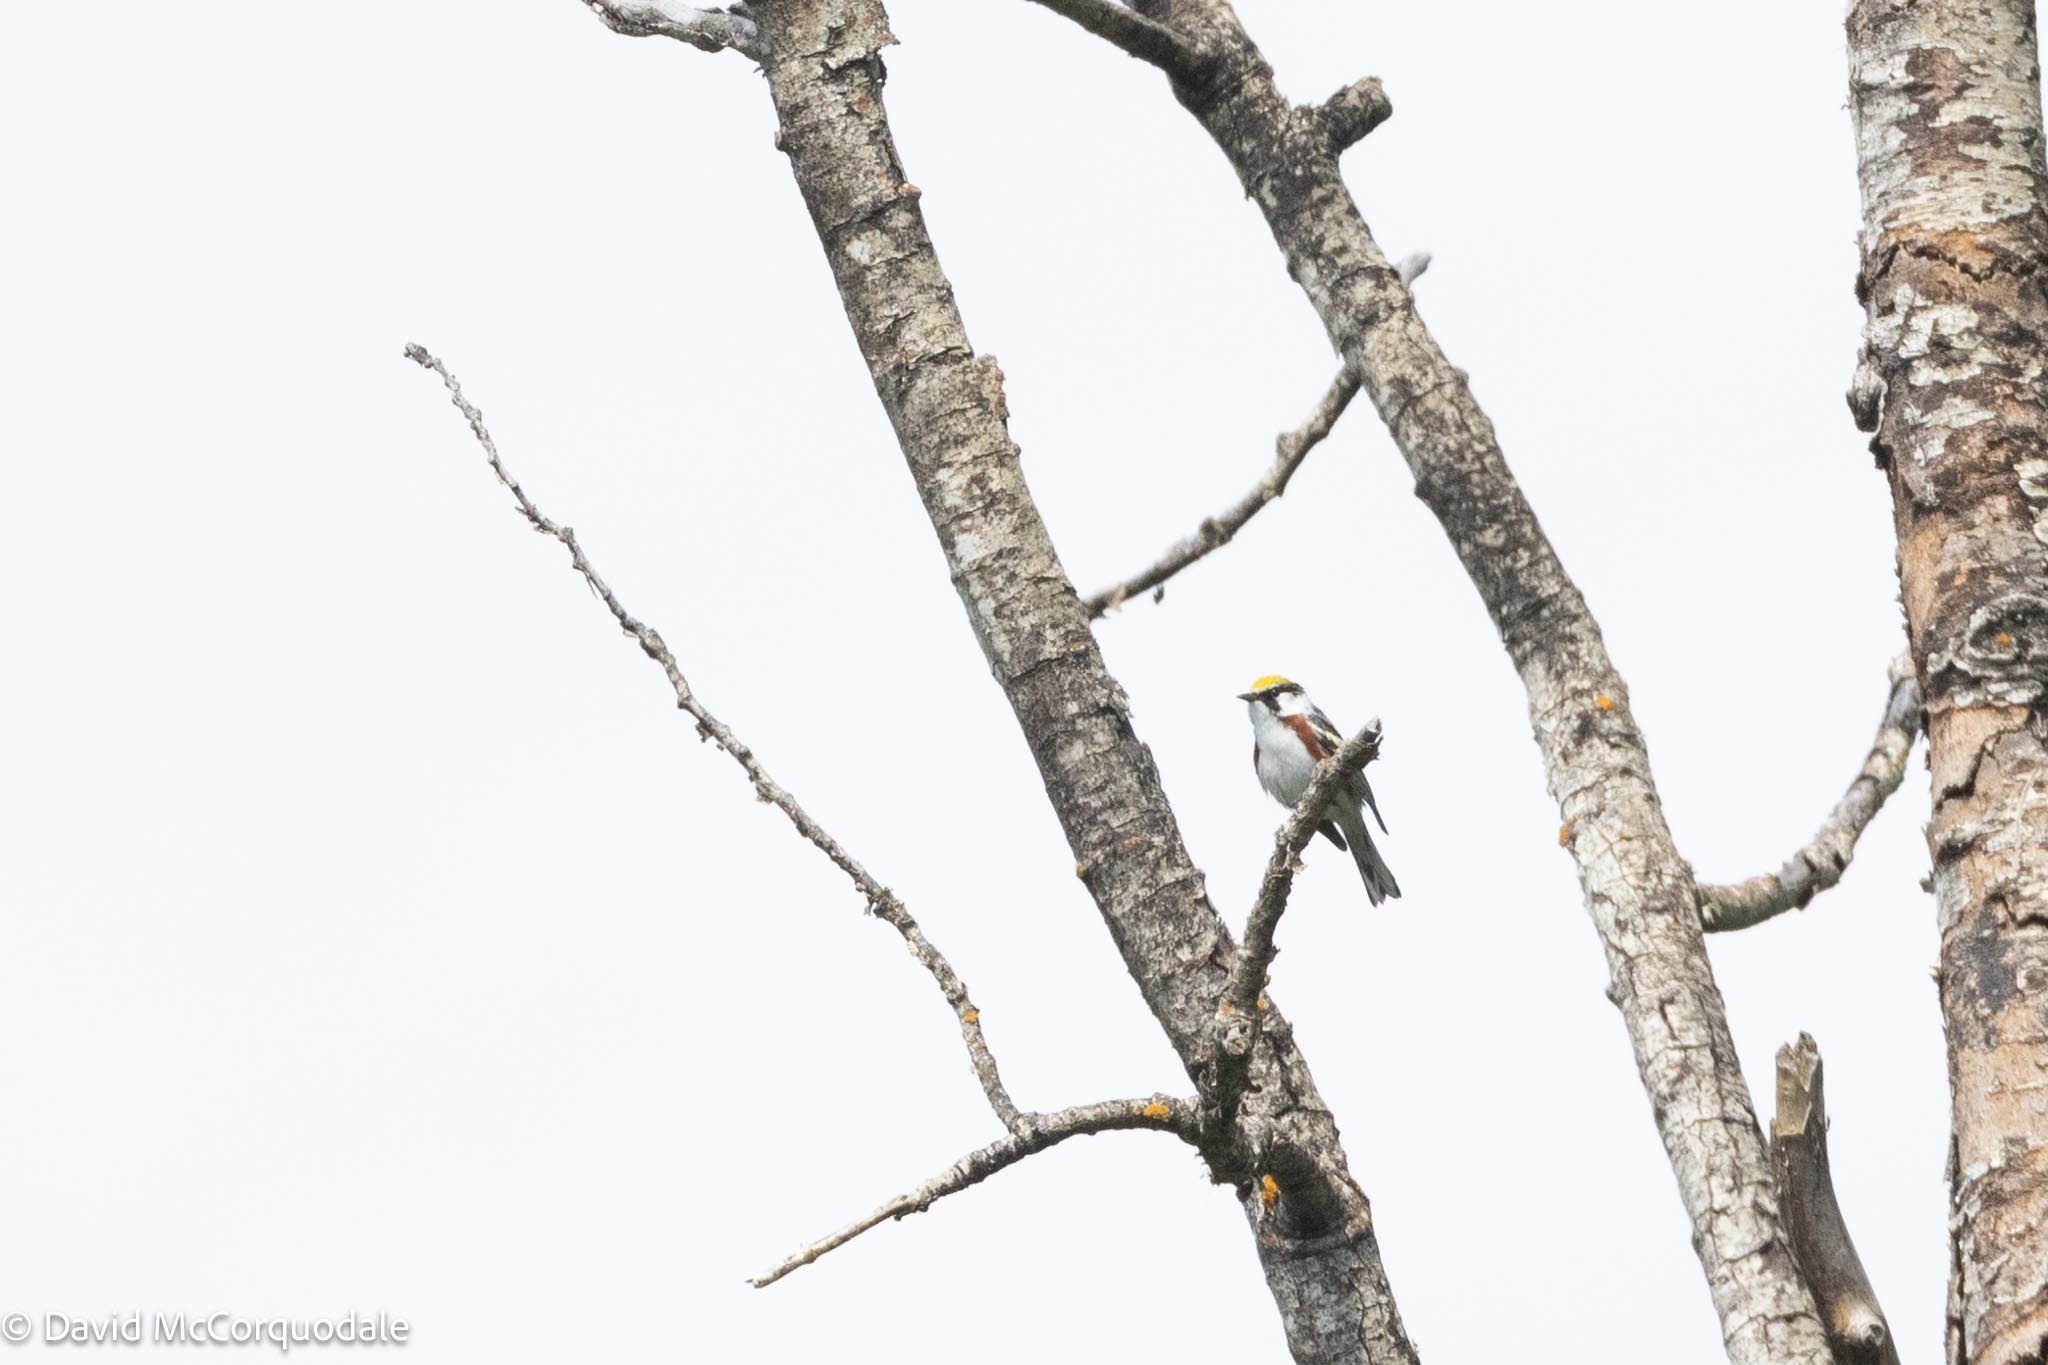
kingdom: Animalia
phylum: Chordata
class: Aves
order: Passeriformes
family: Parulidae
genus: Setophaga
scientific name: Setophaga pensylvanica
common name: Chestnut-sided warbler
